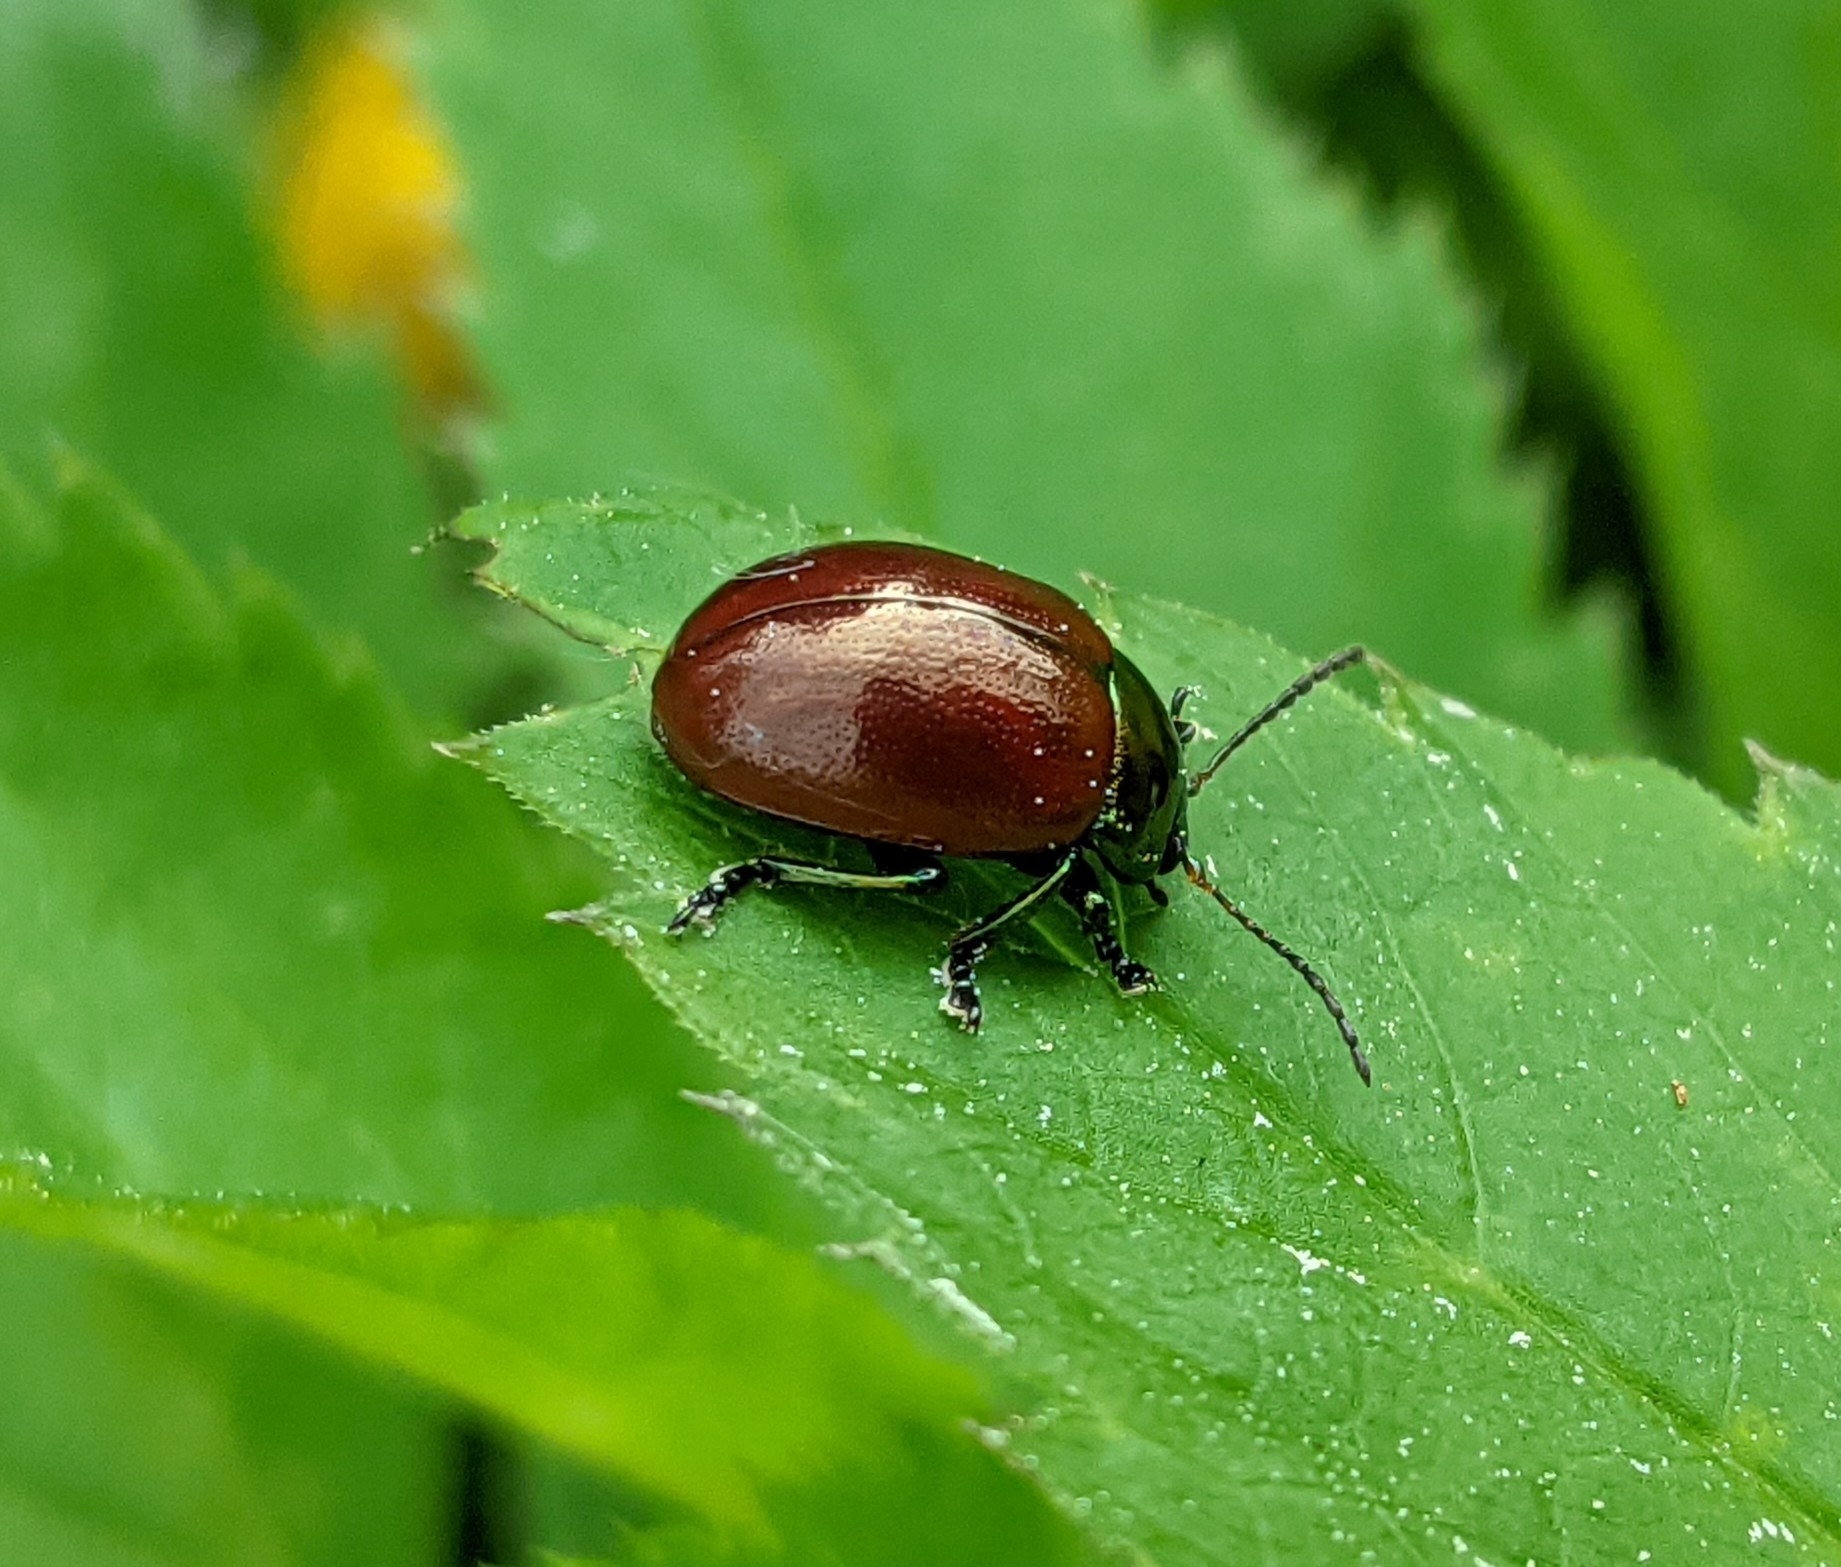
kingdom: Animalia
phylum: Arthropoda
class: Insecta
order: Coleoptera
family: Chrysomelidae
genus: Chrysomela
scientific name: Chrysomela polita
